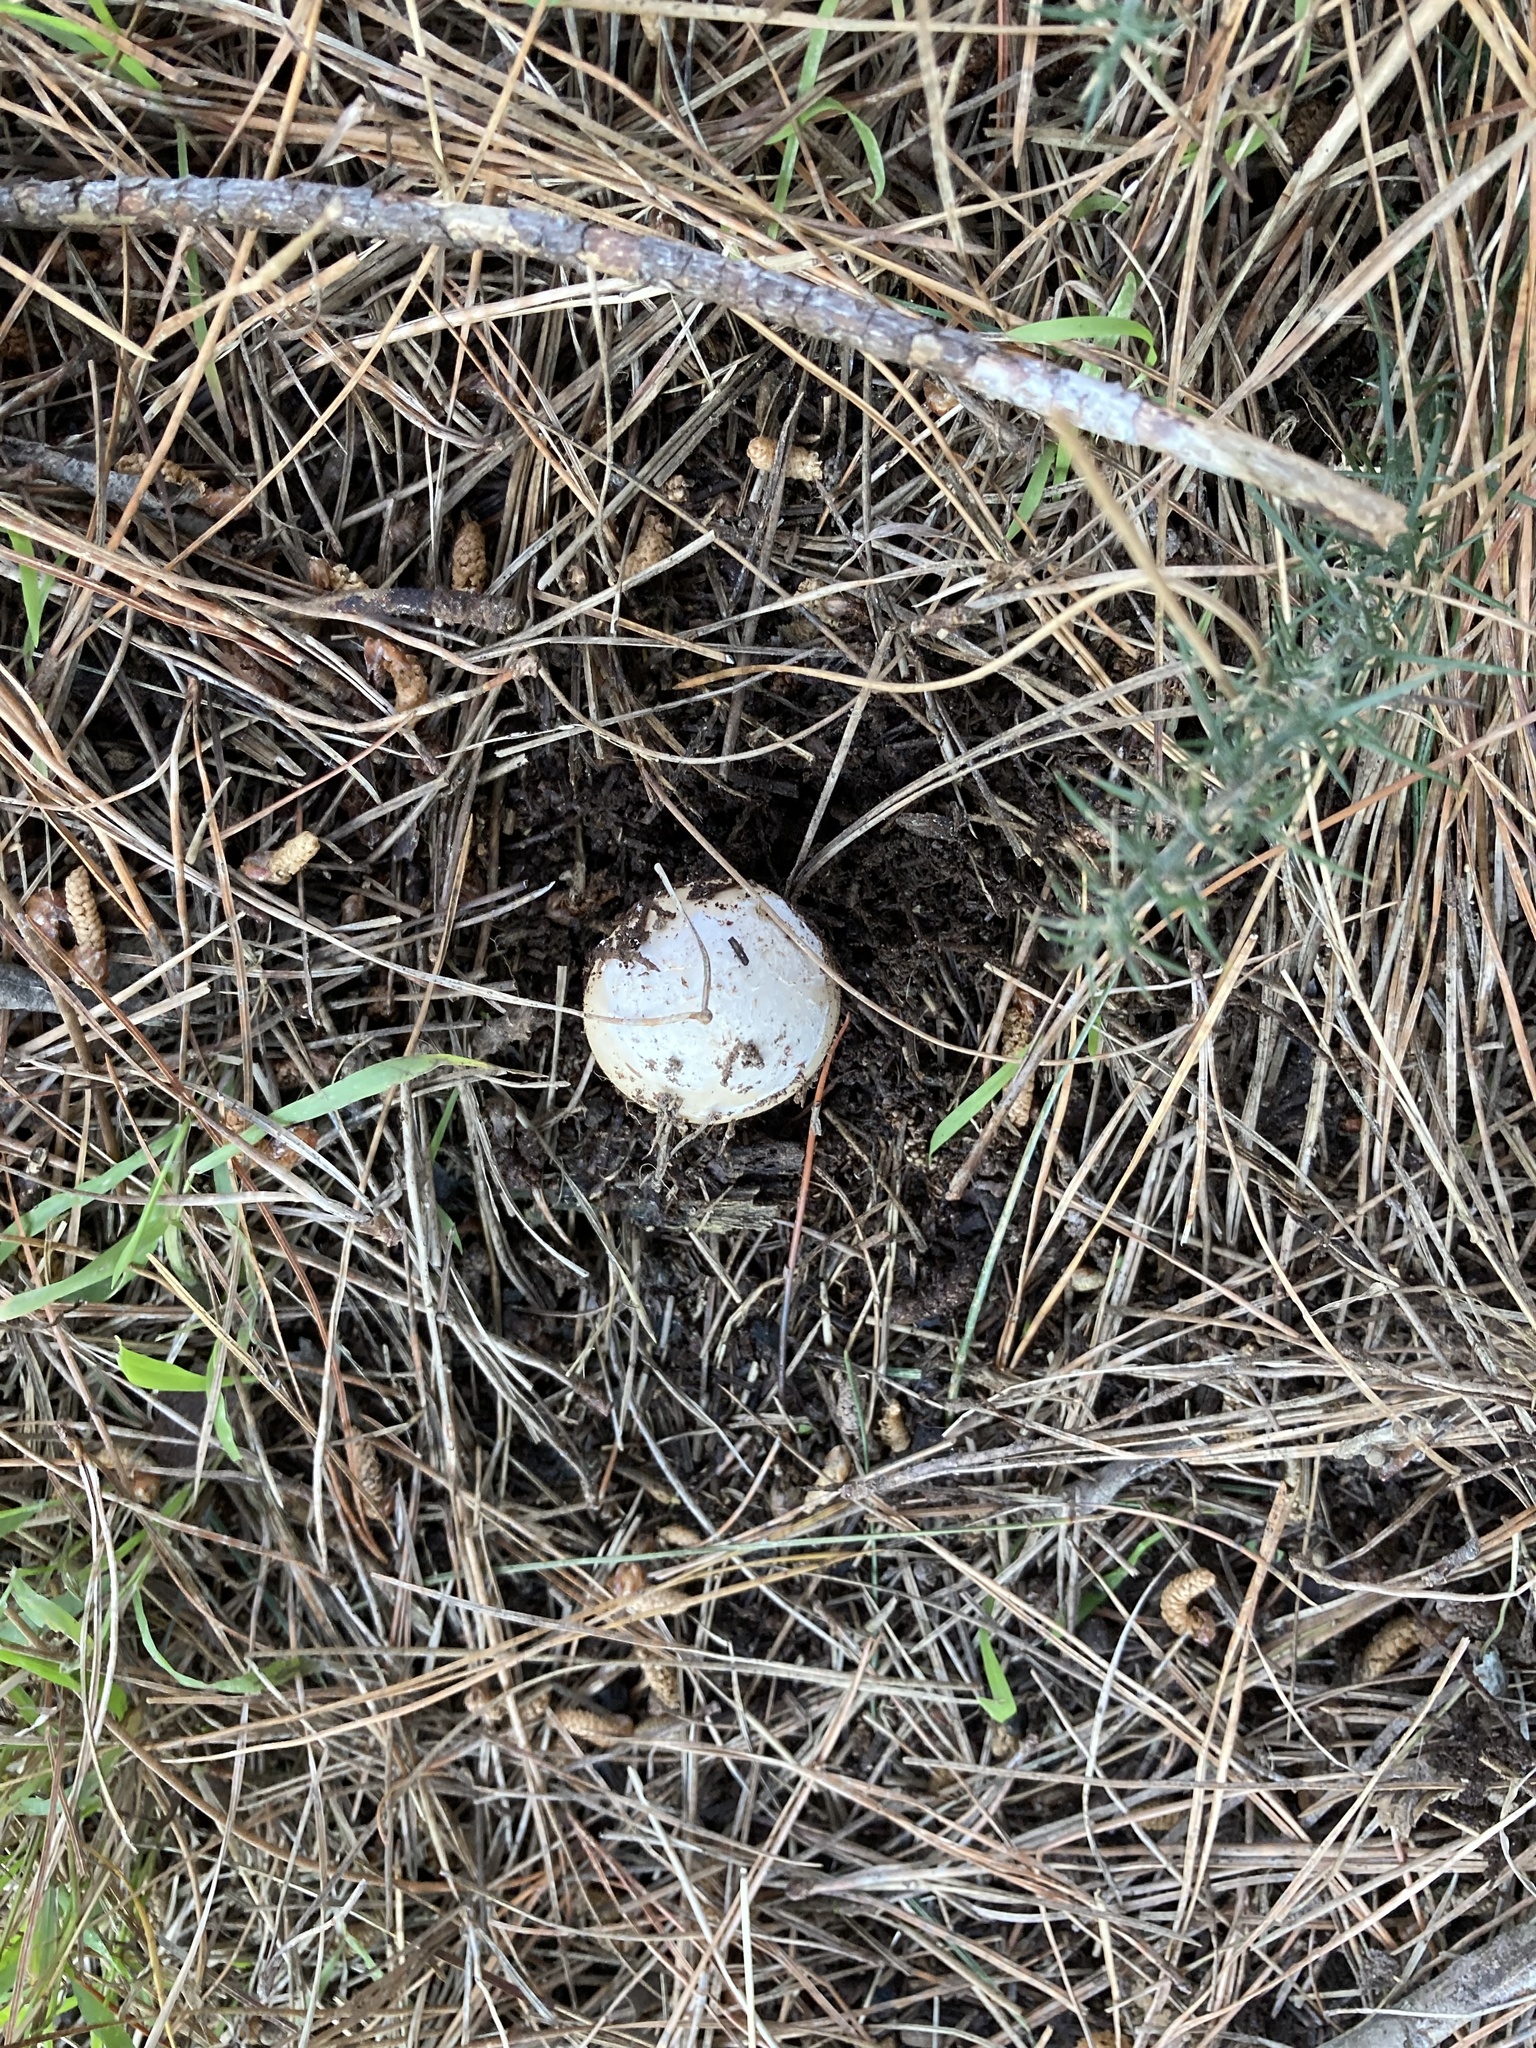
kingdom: Fungi
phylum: Basidiomycota
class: Agaricomycetes
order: Agaricales
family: Amanitaceae
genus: Amanita
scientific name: Amanita gemmata
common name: Jewelled amanita
